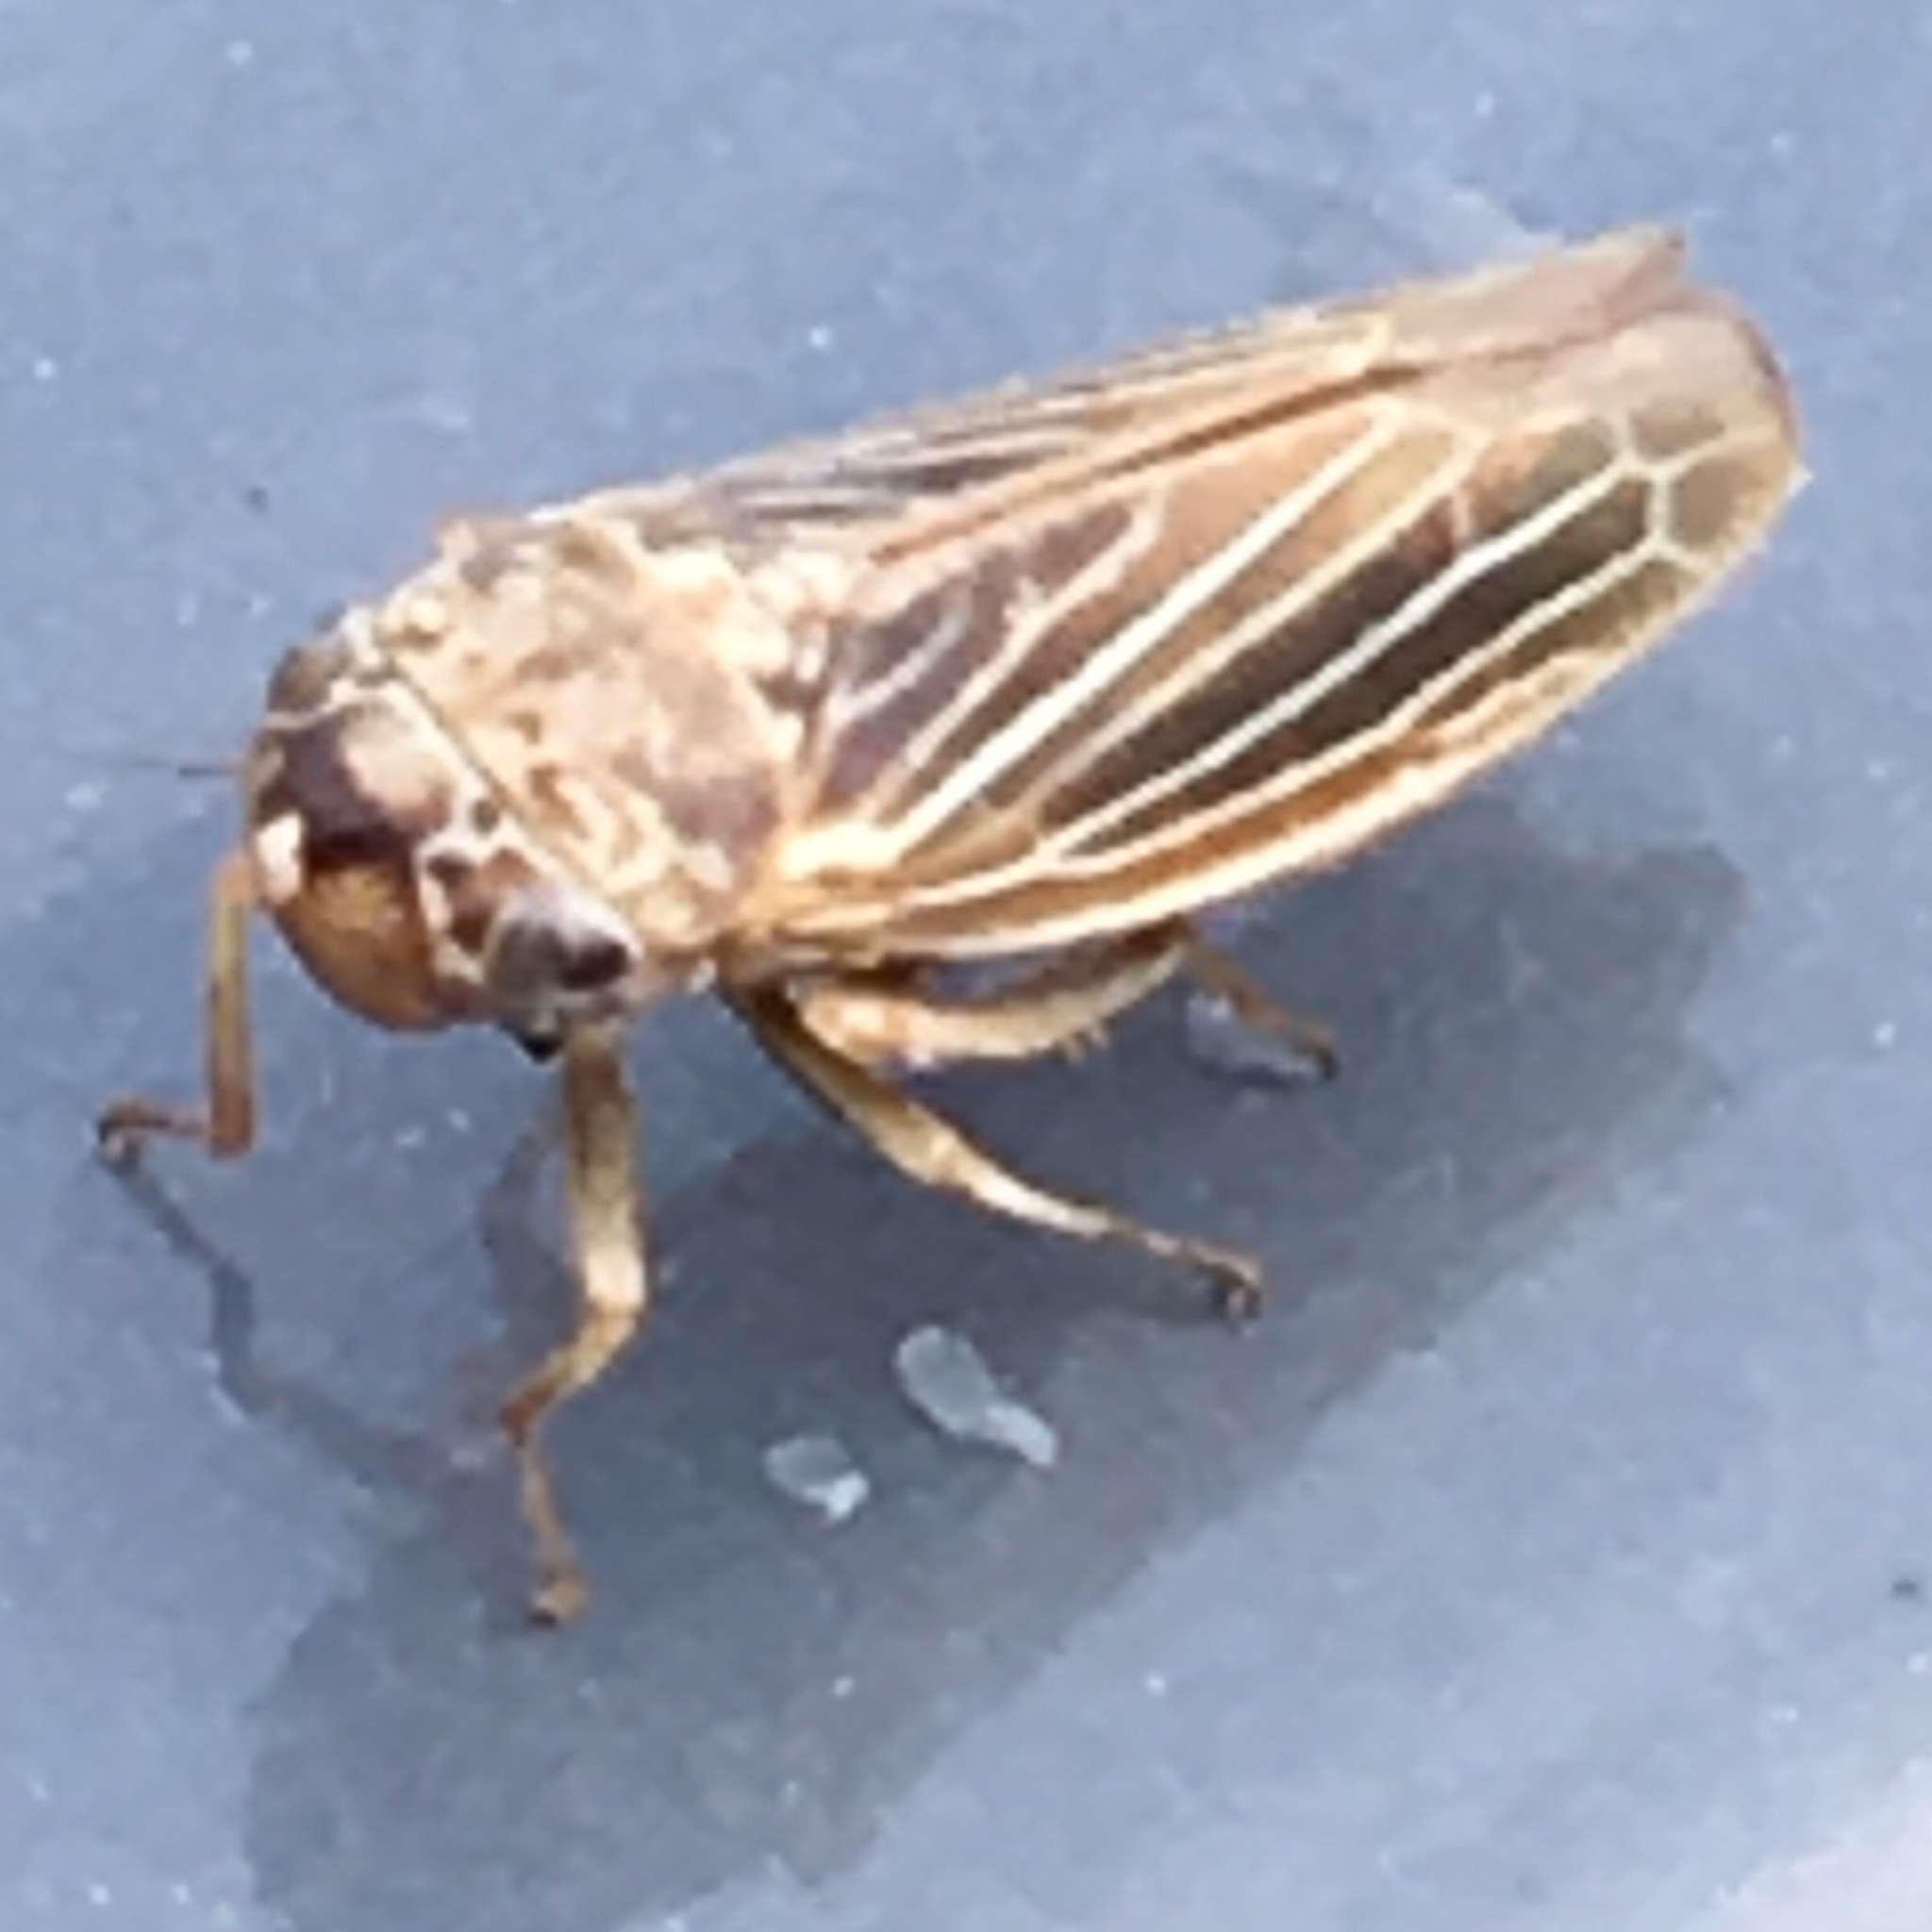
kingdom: Animalia
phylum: Arthropoda
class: Insecta
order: Hemiptera
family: Cicadellidae
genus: Ciminius
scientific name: Ciminius hartii
